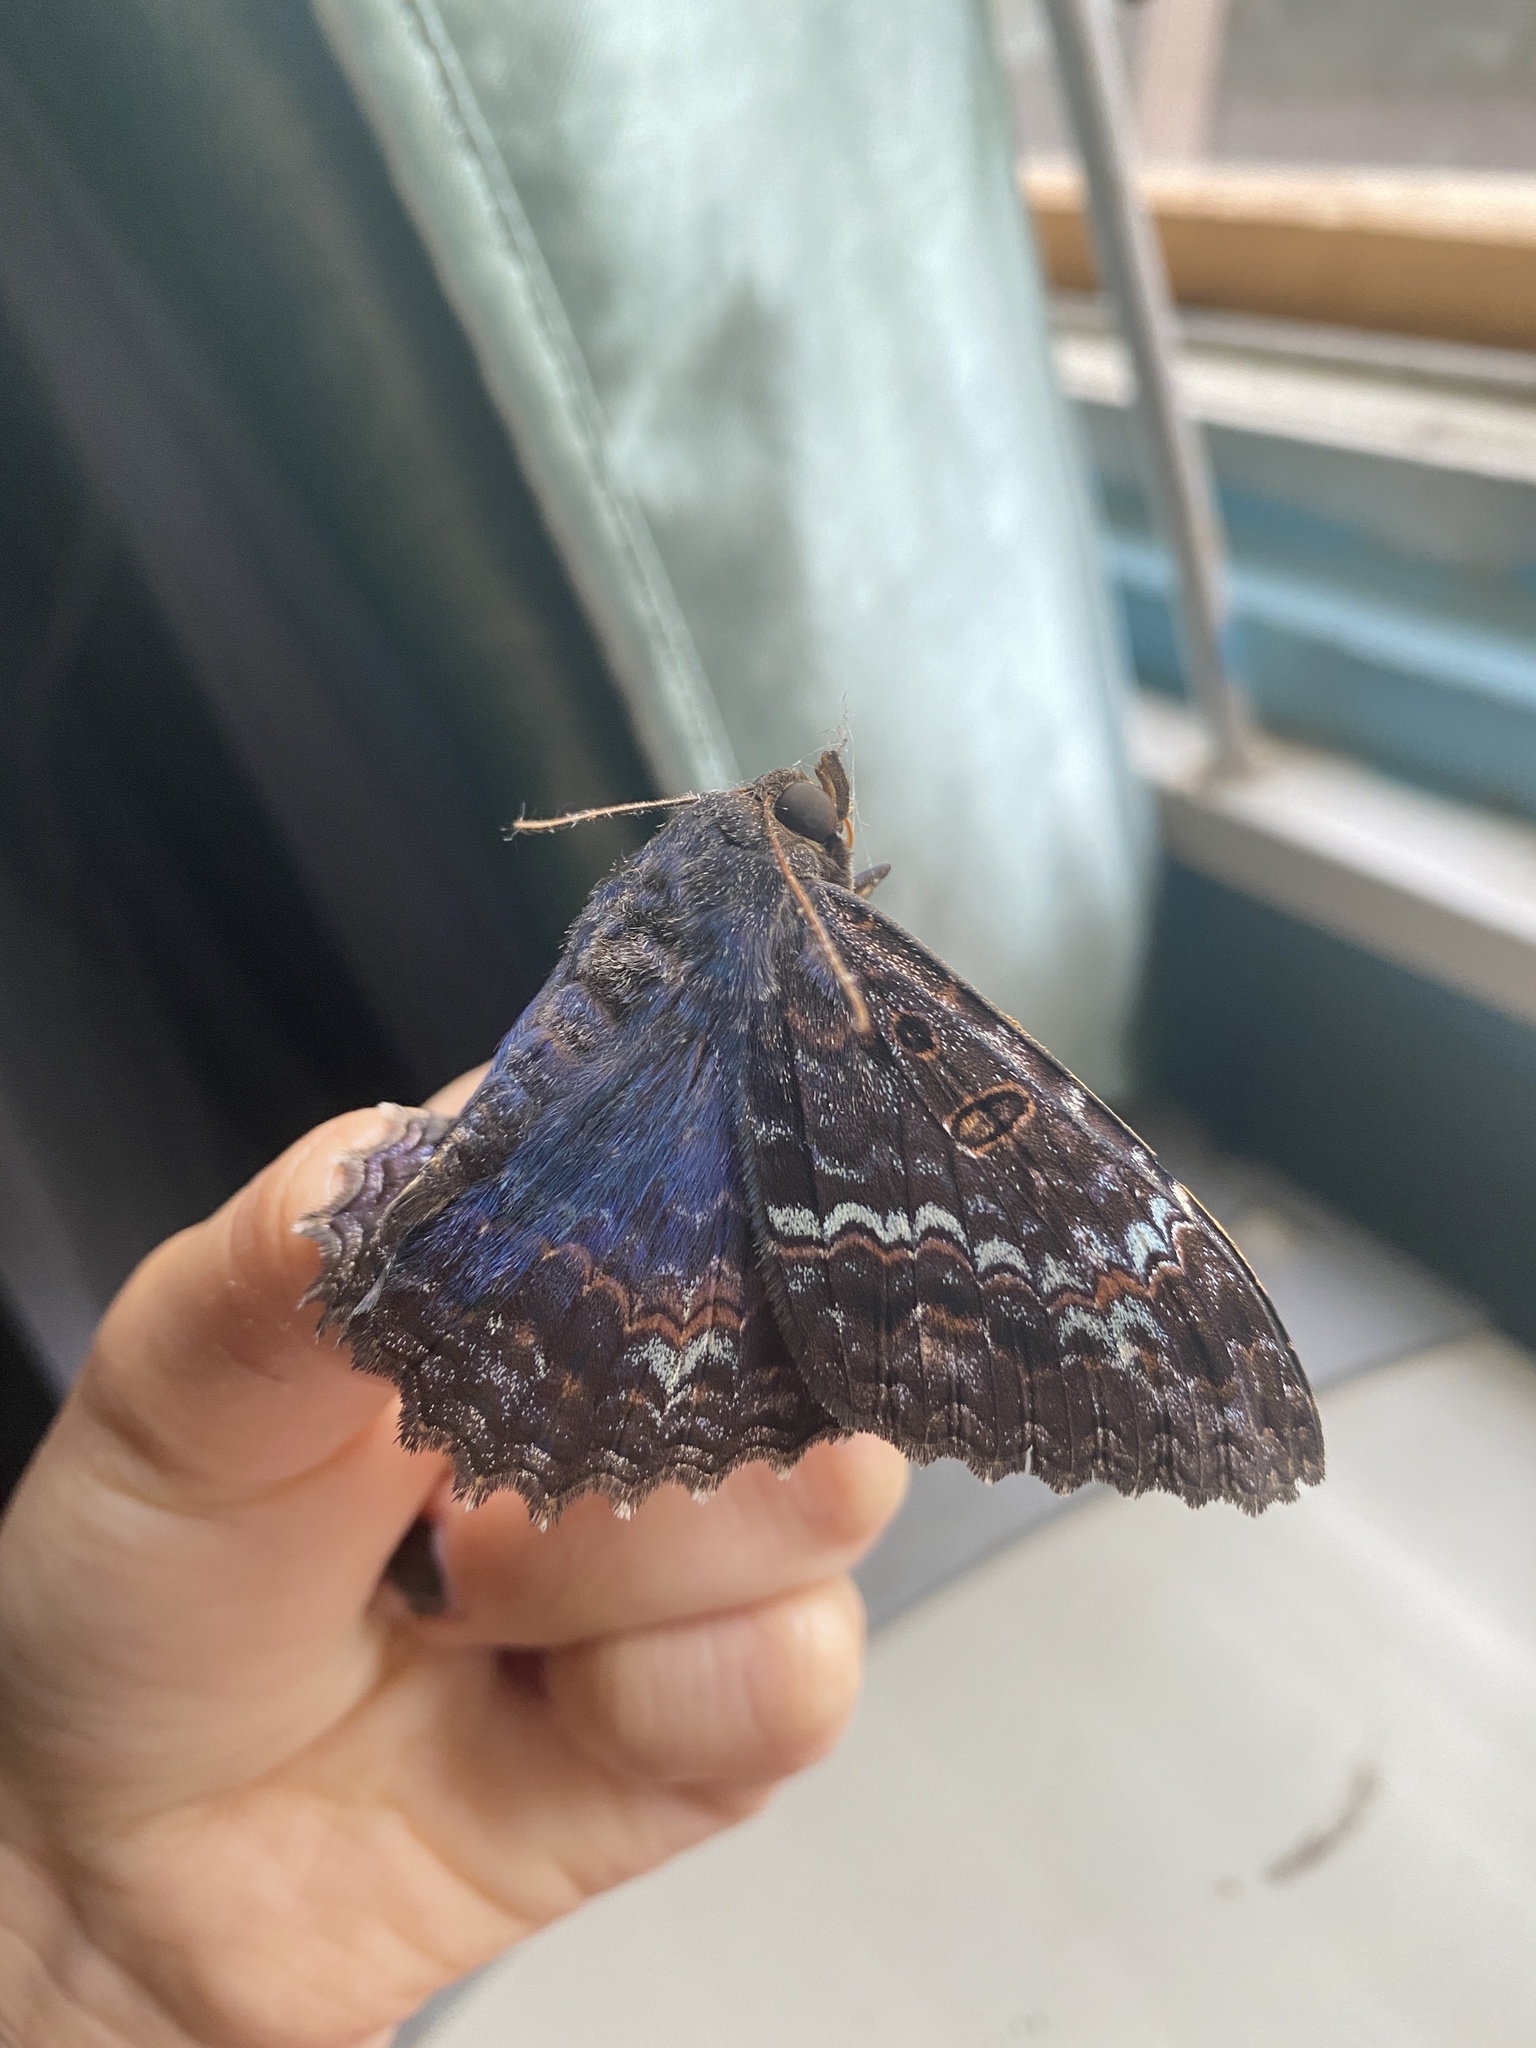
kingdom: Animalia
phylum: Arthropoda
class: Insecta
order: Lepidoptera
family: Erebidae
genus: Letis
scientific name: Letis iphianasse
